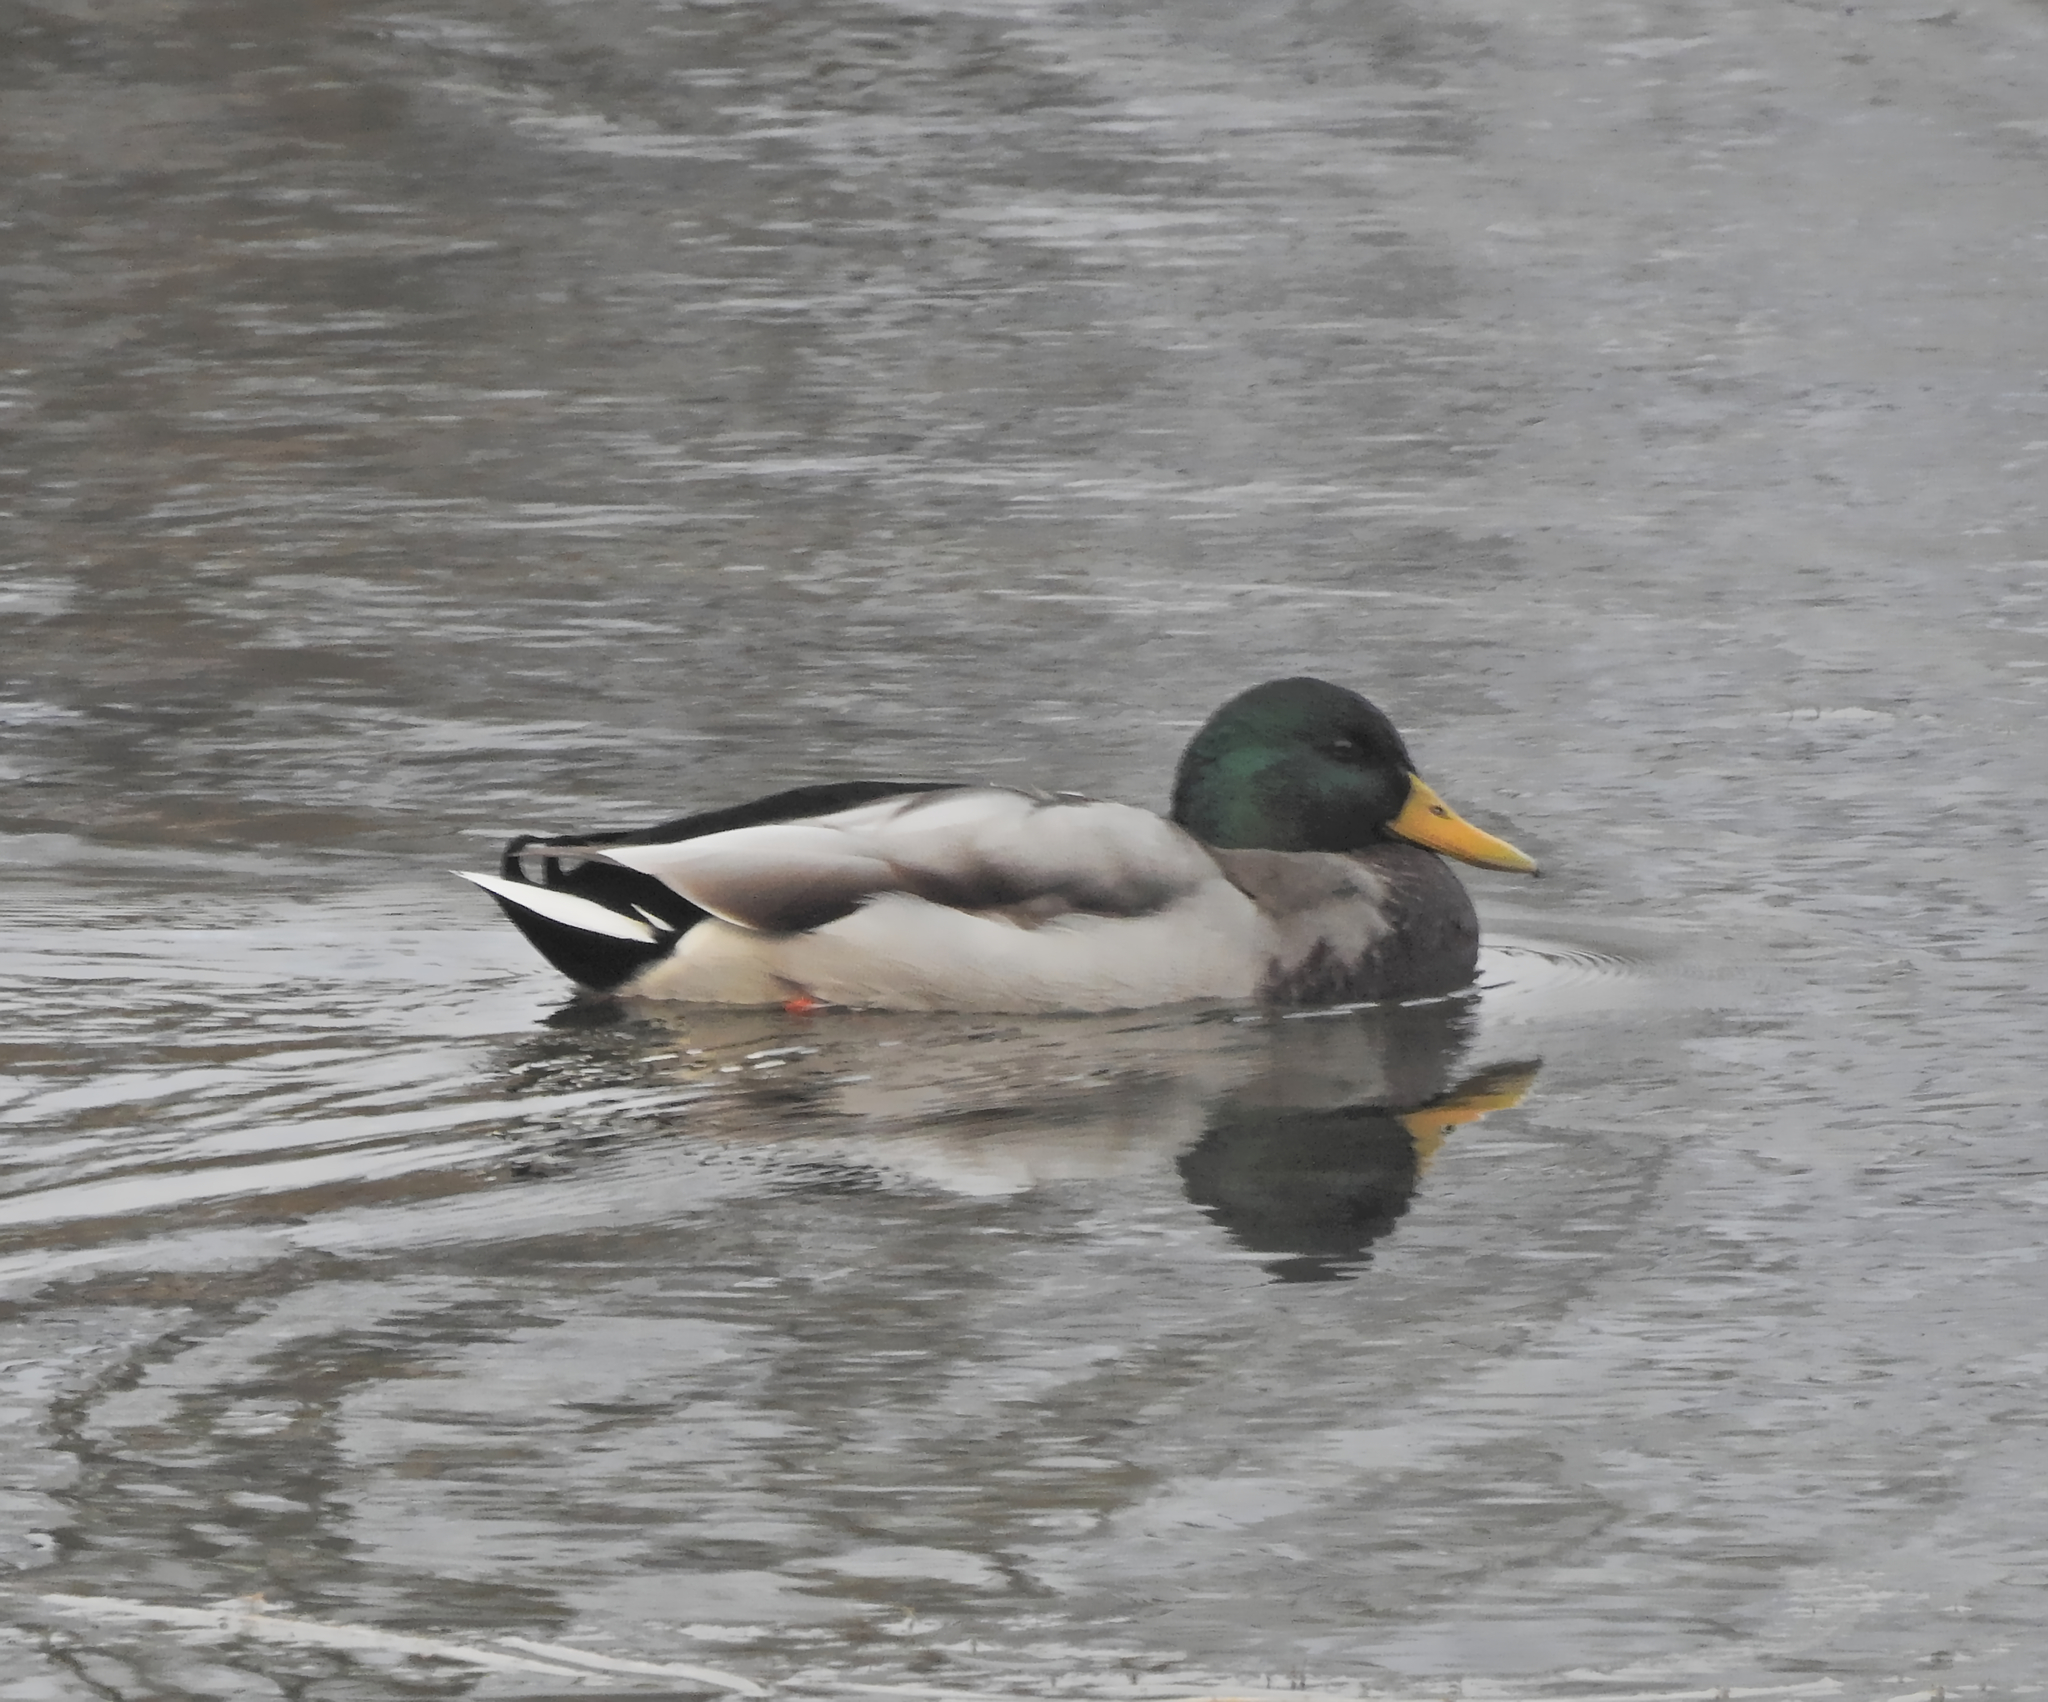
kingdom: Animalia
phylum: Chordata
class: Aves
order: Anseriformes
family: Anatidae
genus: Anas
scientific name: Anas platyrhynchos
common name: Mallard
